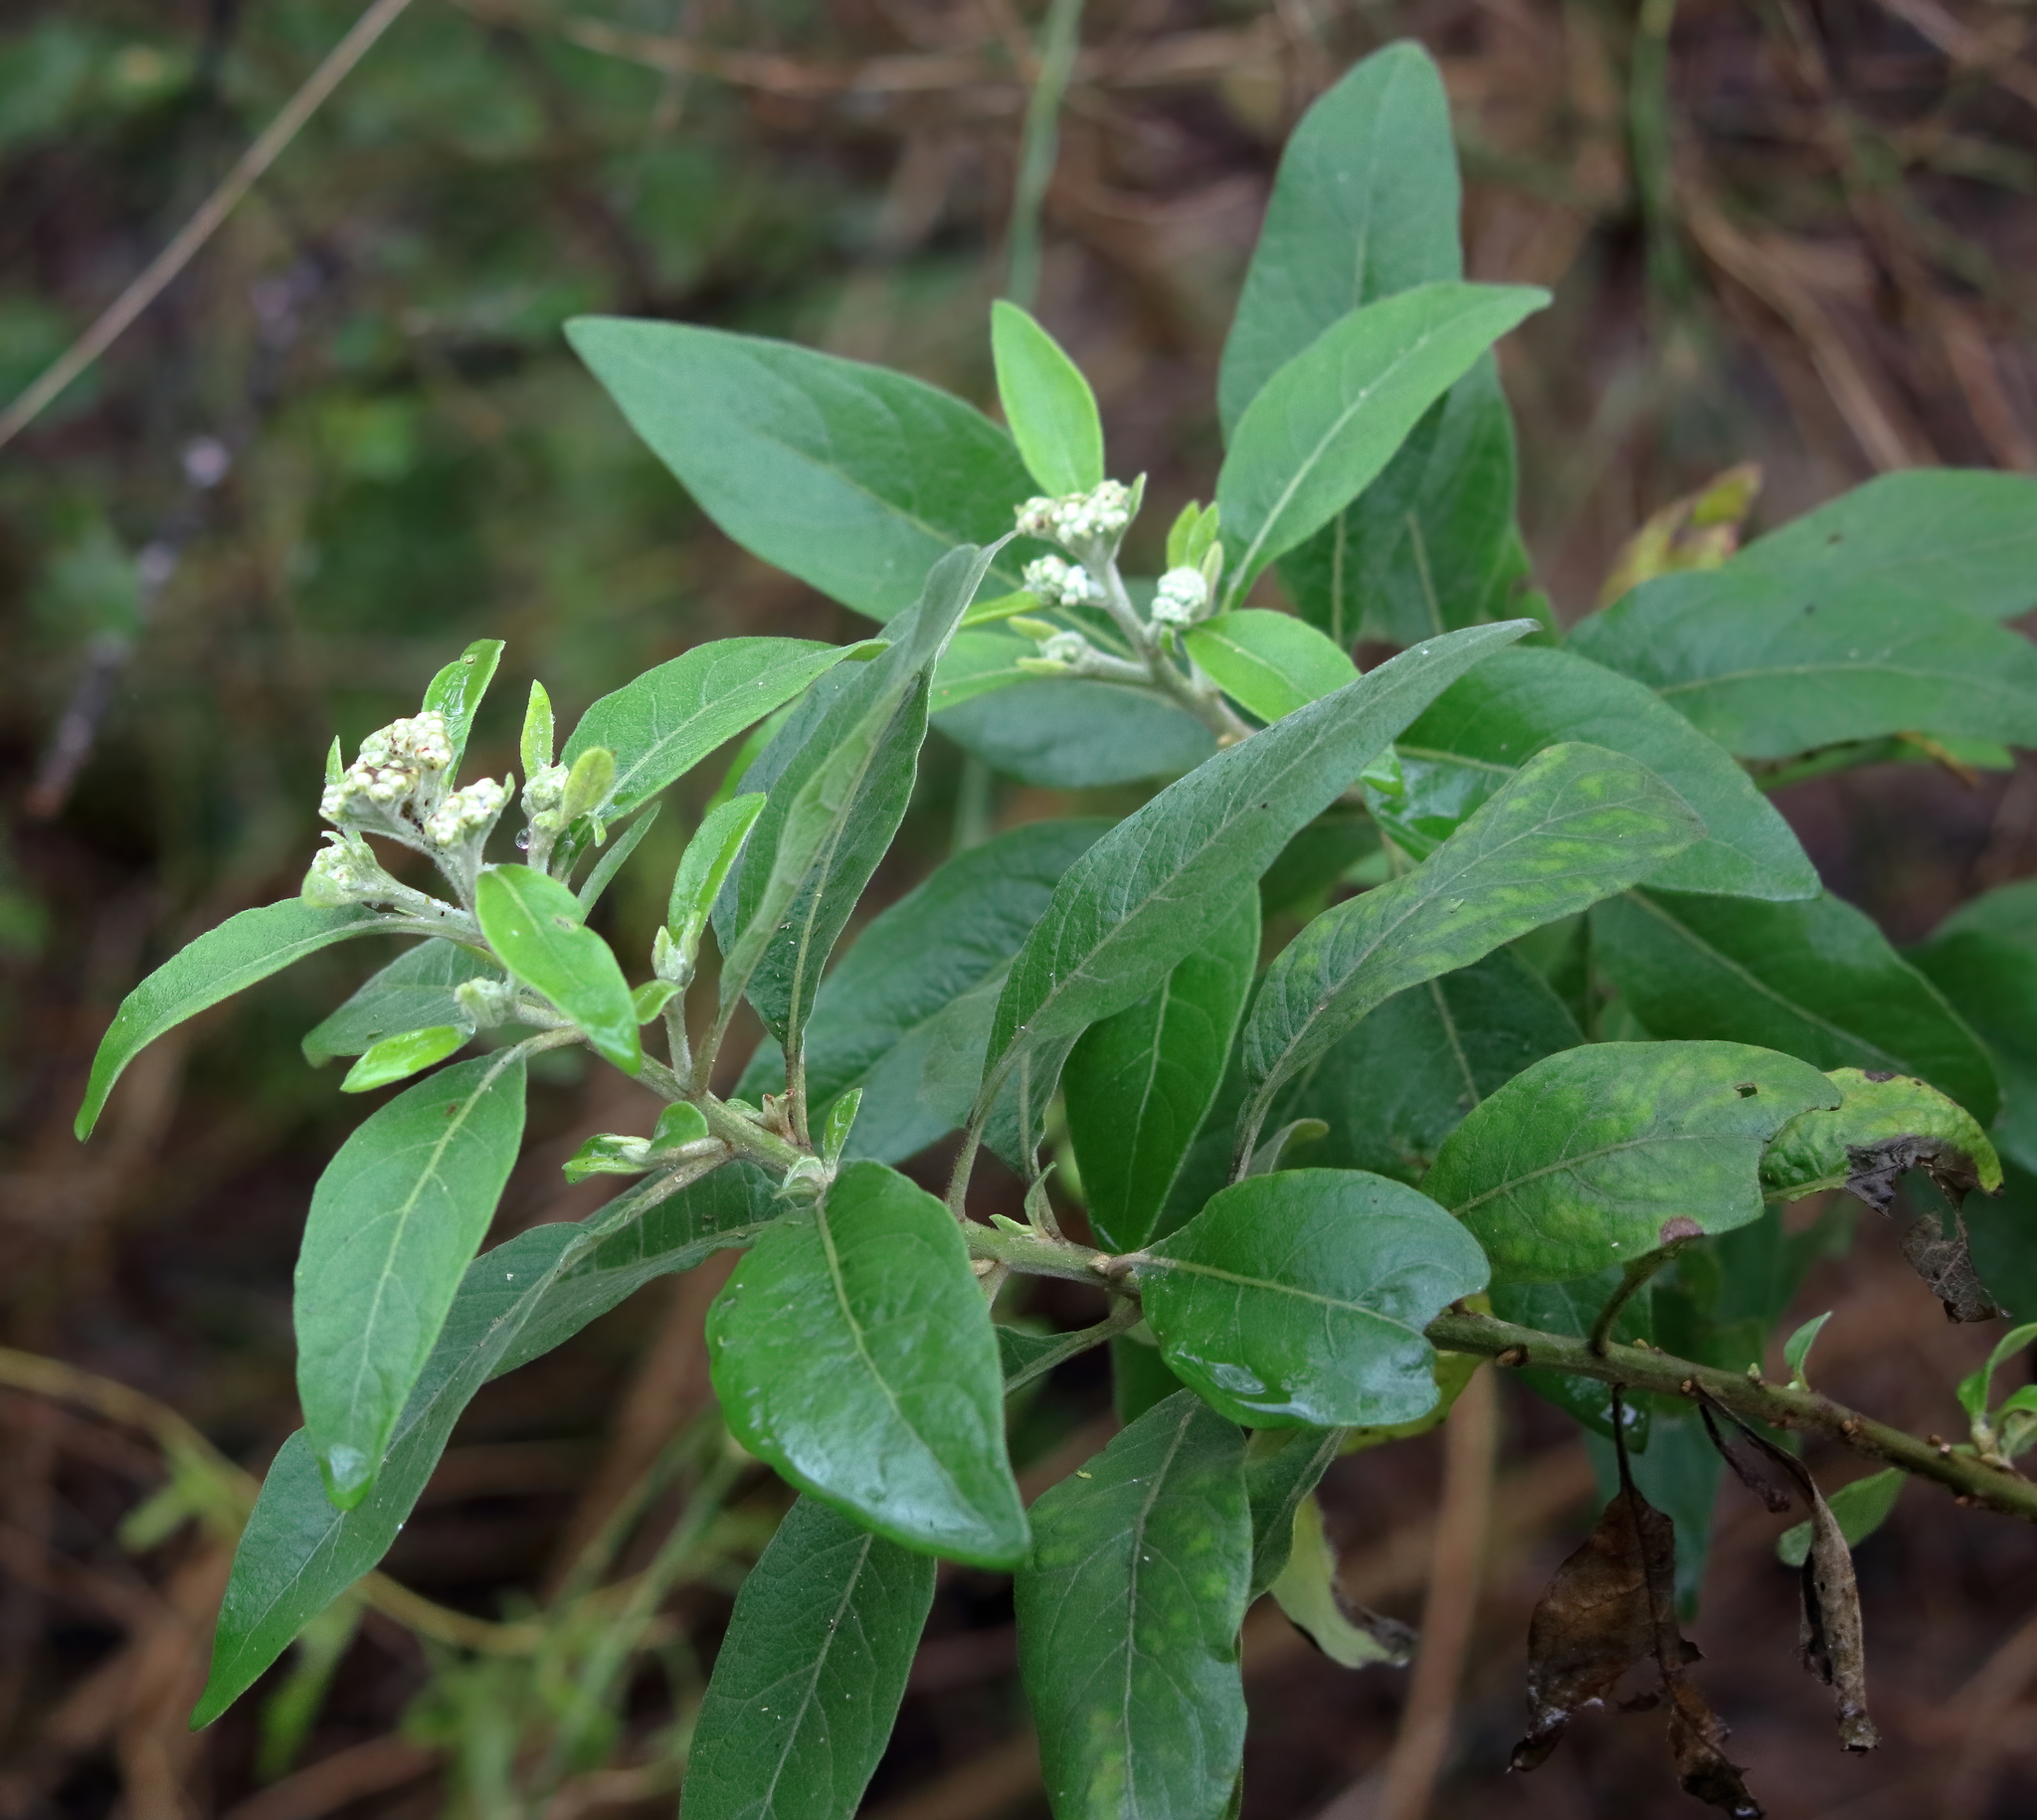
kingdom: Plantae
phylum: Tracheophyta
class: Magnoliopsida
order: Asterales
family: Asteraceae
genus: Pluchea
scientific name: Pluchea carolinensis
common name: Marsh fleabane
